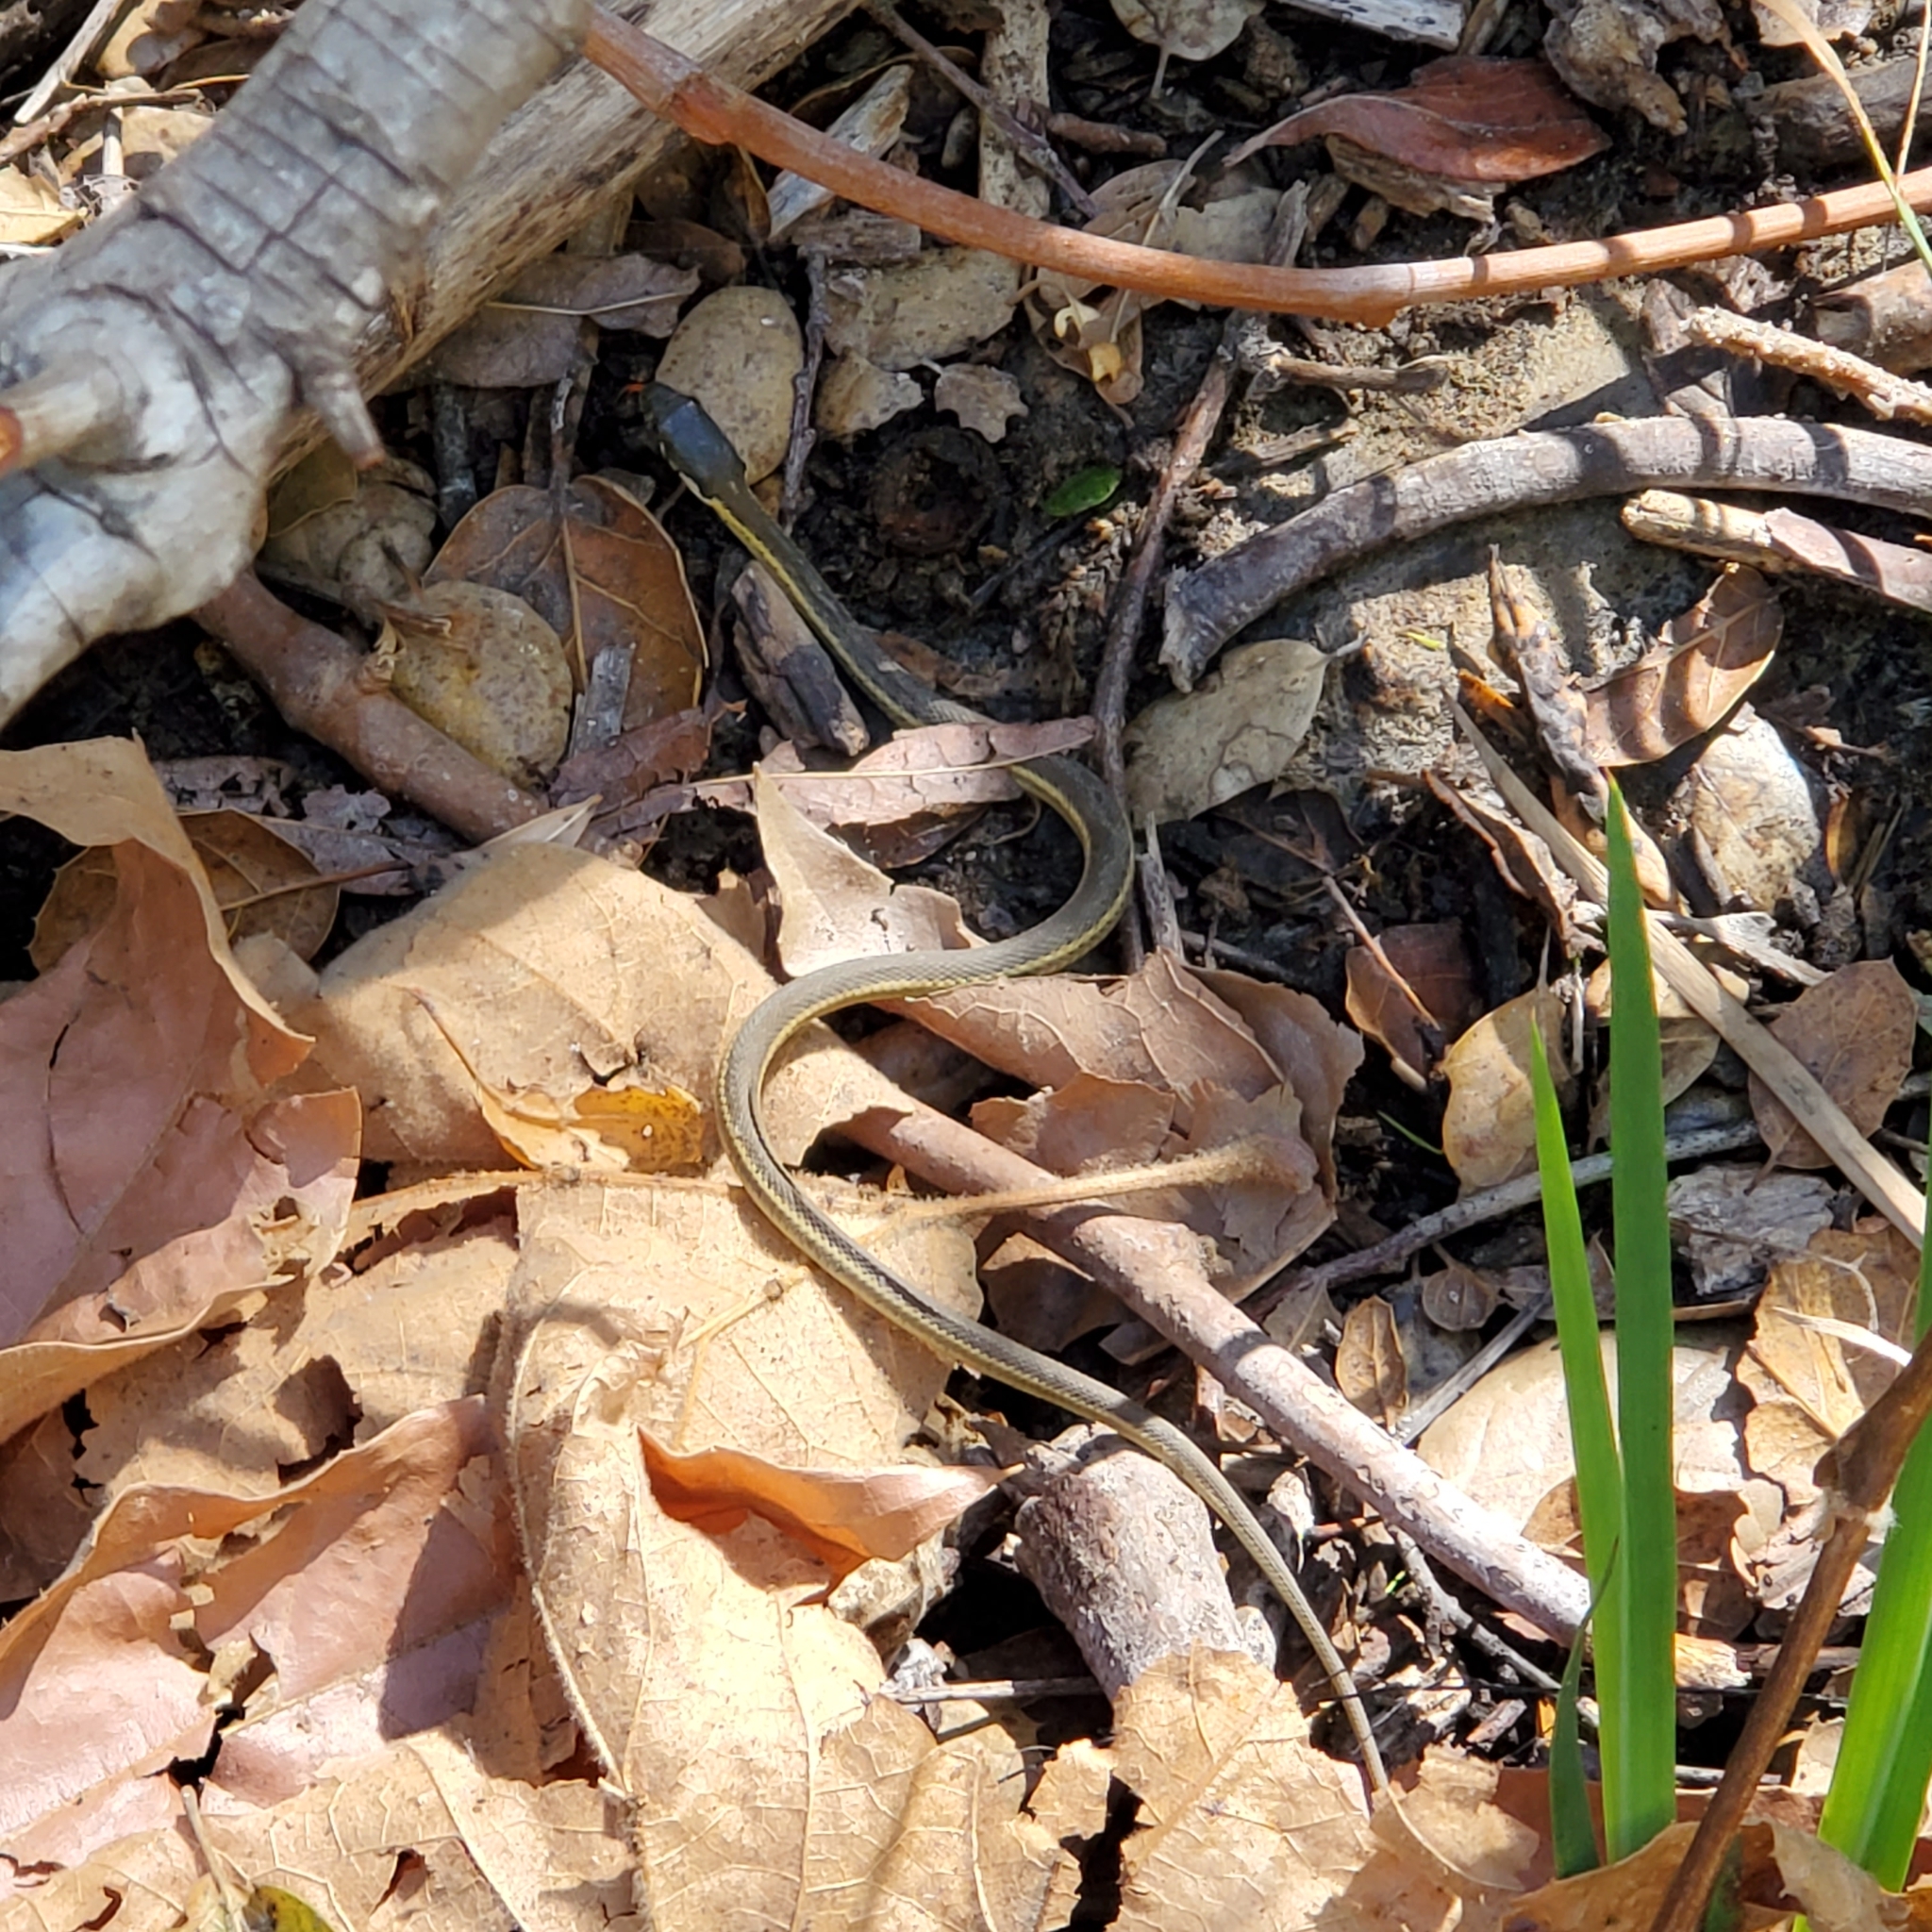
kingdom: Animalia
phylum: Chordata
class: Squamata
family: Colubridae
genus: Masticophis
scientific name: Masticophis lateralis
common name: Striped racer
